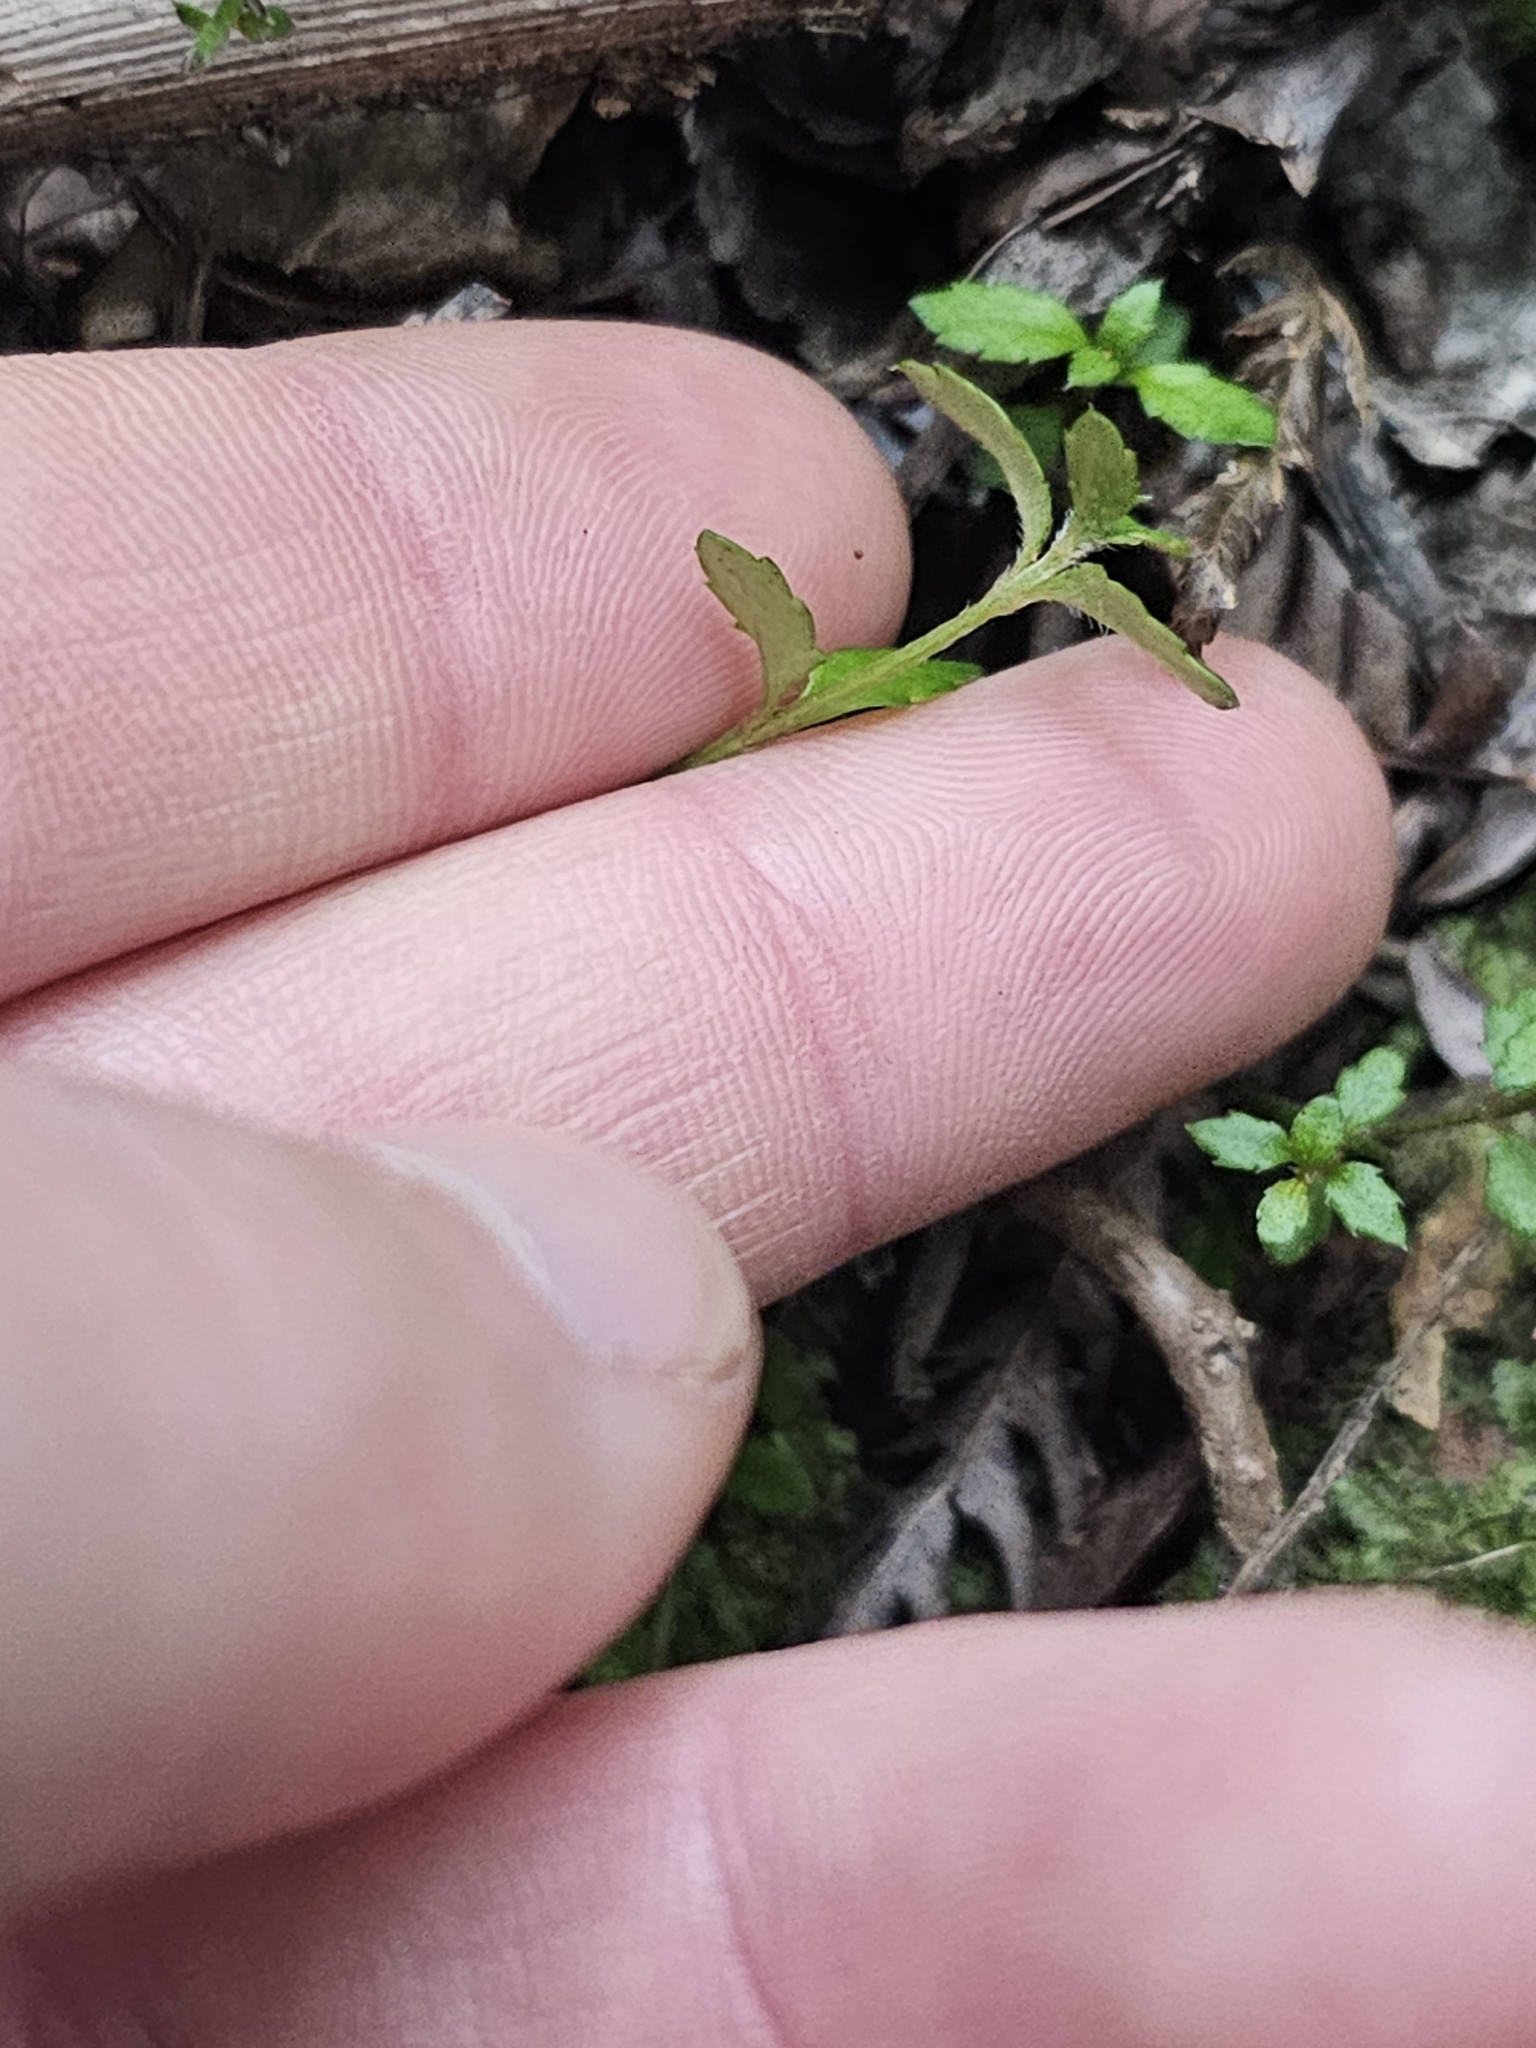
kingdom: Plantae
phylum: Tracheophyta
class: Magnoliopsida
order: Saxifragales
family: Haloragaceae
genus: Gonocarpus
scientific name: Gonocarpus incanus
